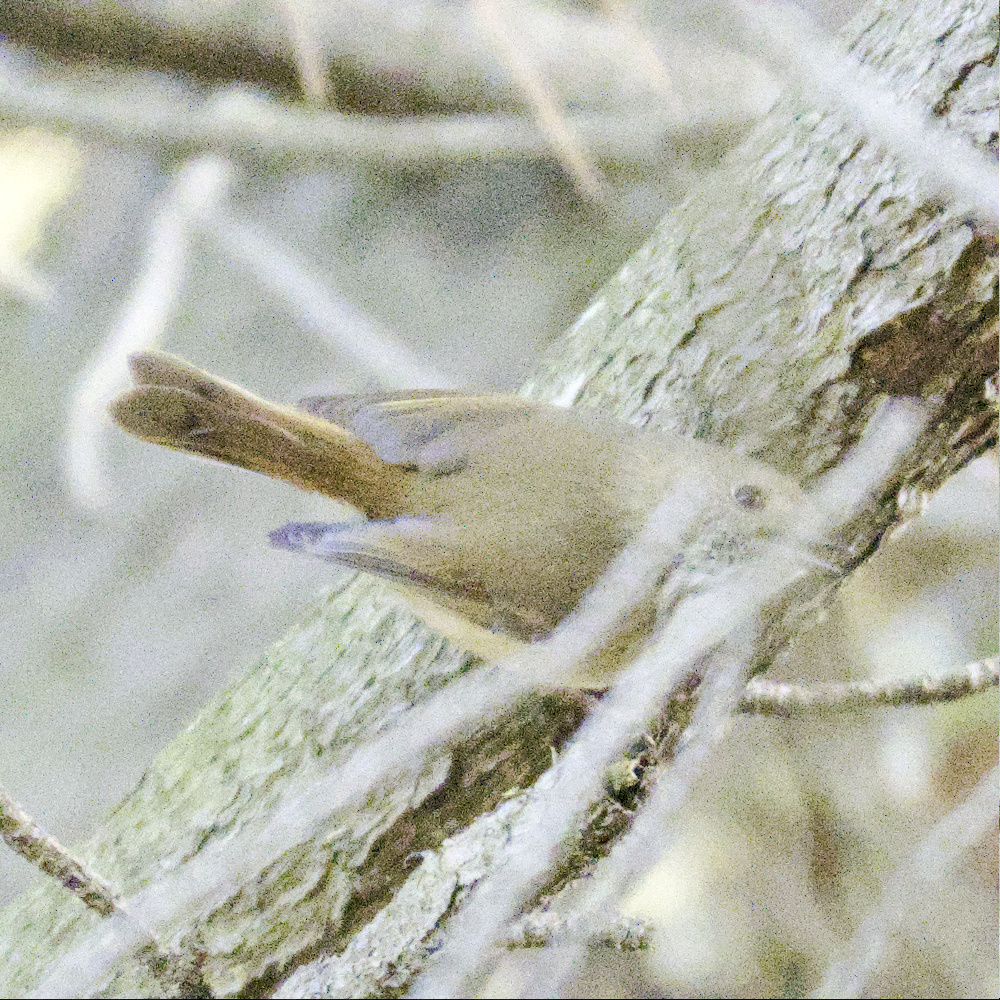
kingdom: Animalia
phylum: Chordata
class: Aves
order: Passeriformes
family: Acanthizidae
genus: Acanthiza
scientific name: Acanthiza pusilla
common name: Brown thornbill
